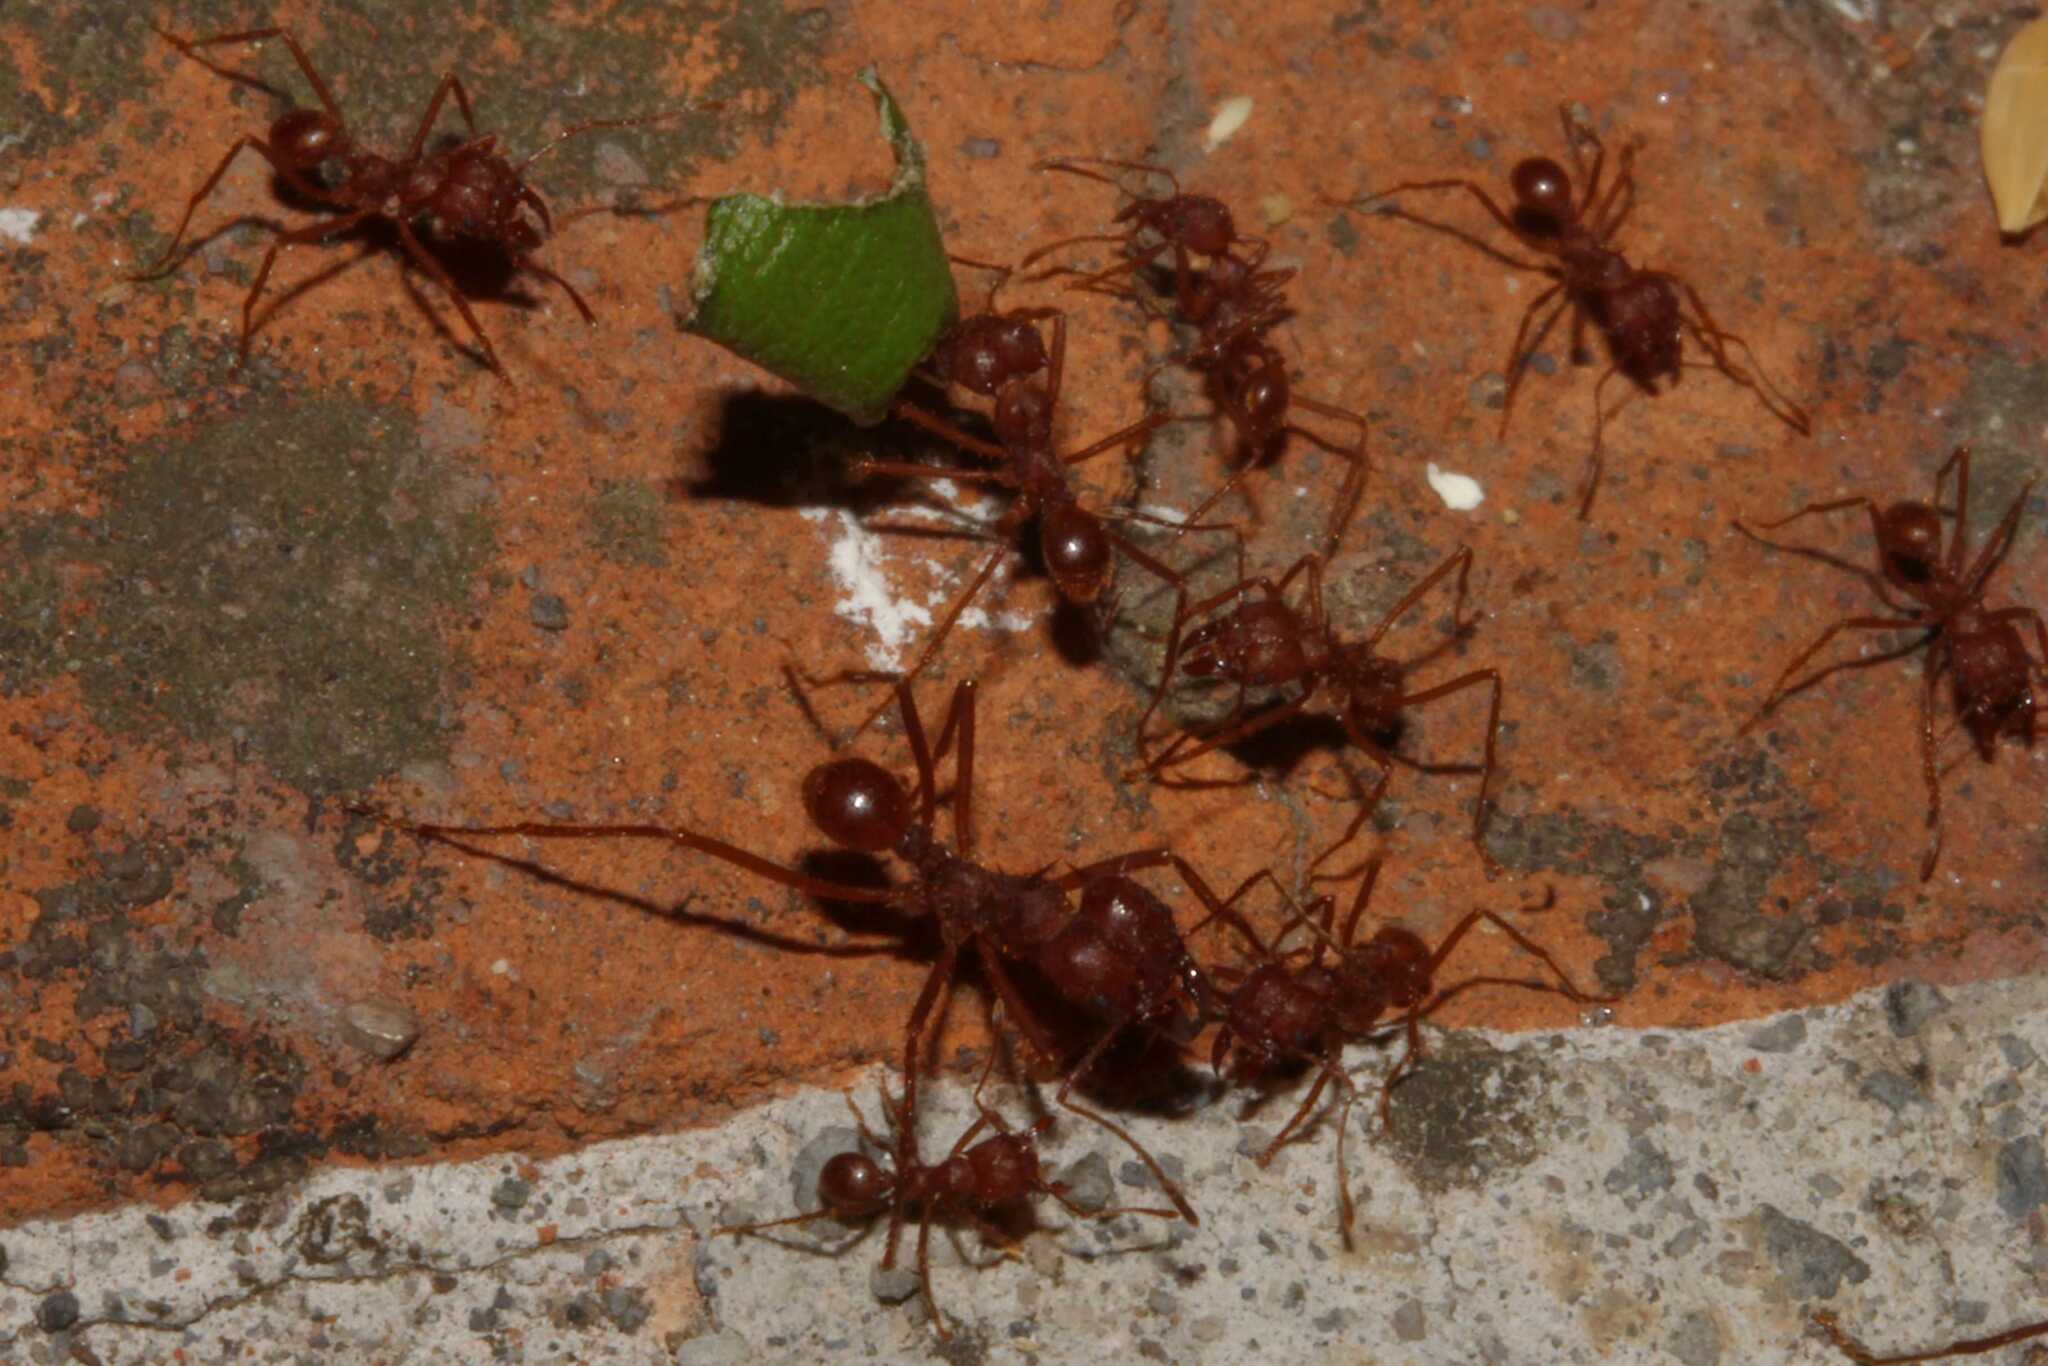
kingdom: Animalia
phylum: Arthropoda
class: Insecta
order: Hymenoptera
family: Formicidae
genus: Atta
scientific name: Atta mexicana
